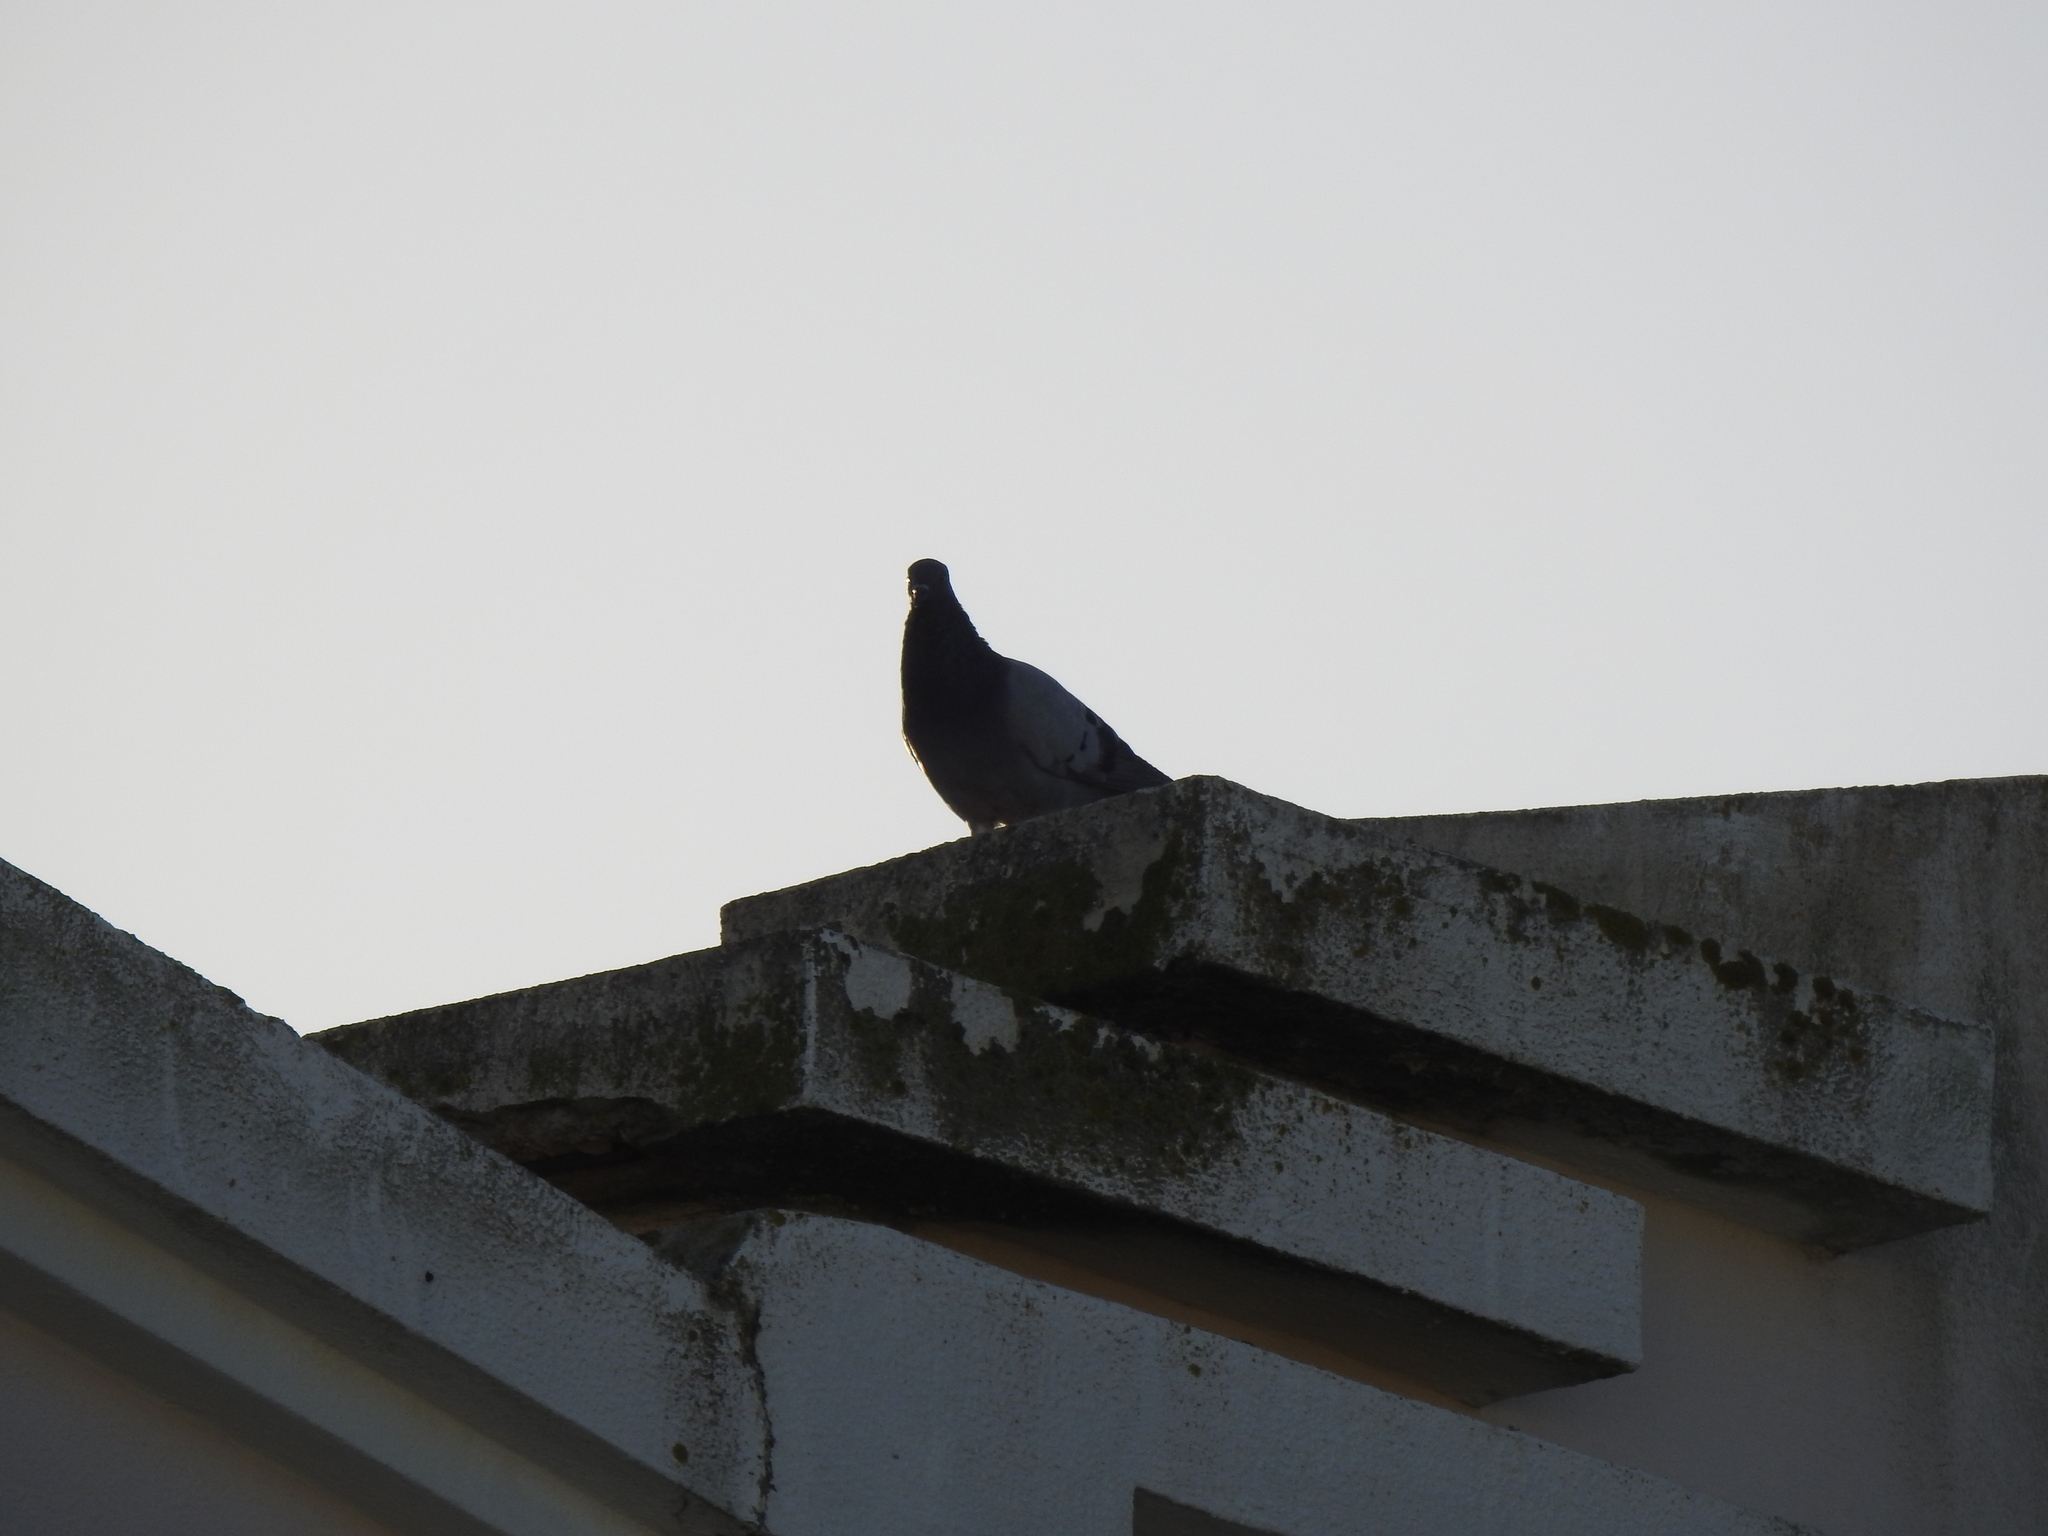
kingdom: Animalia
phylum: Chordata
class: Aves
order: Columbiformes
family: Columbidae
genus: Columba
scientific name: Columba livia
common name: Rock pigeon
